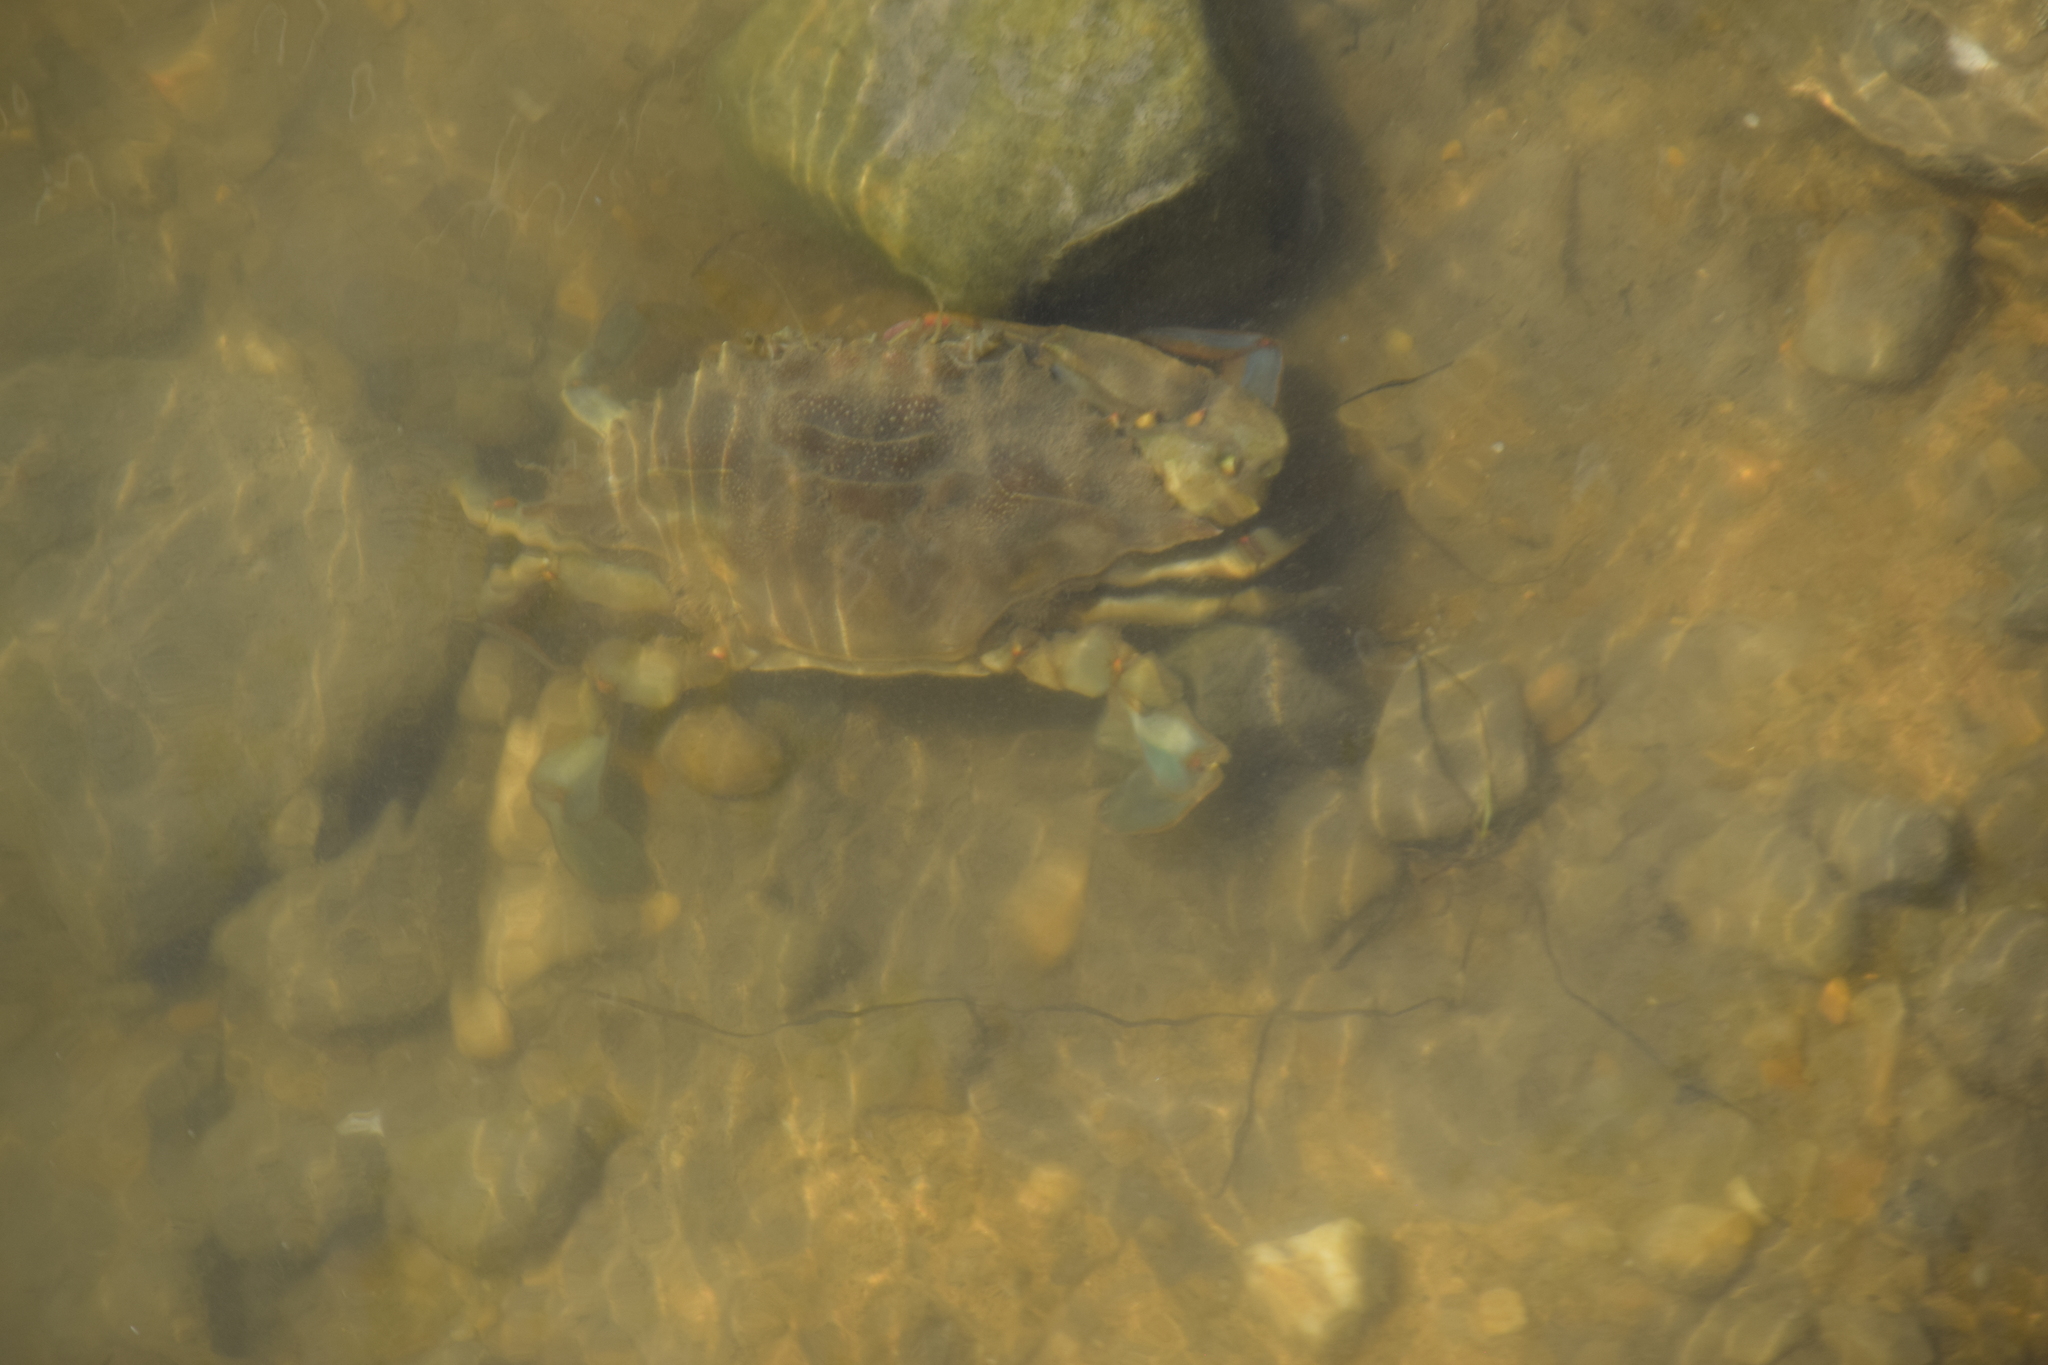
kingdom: Animalia
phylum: Arthropoda
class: Malacostraca
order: Decapoda
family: Portunidae
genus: Callinectes
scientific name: Callinectes sapidus
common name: Blue crab
